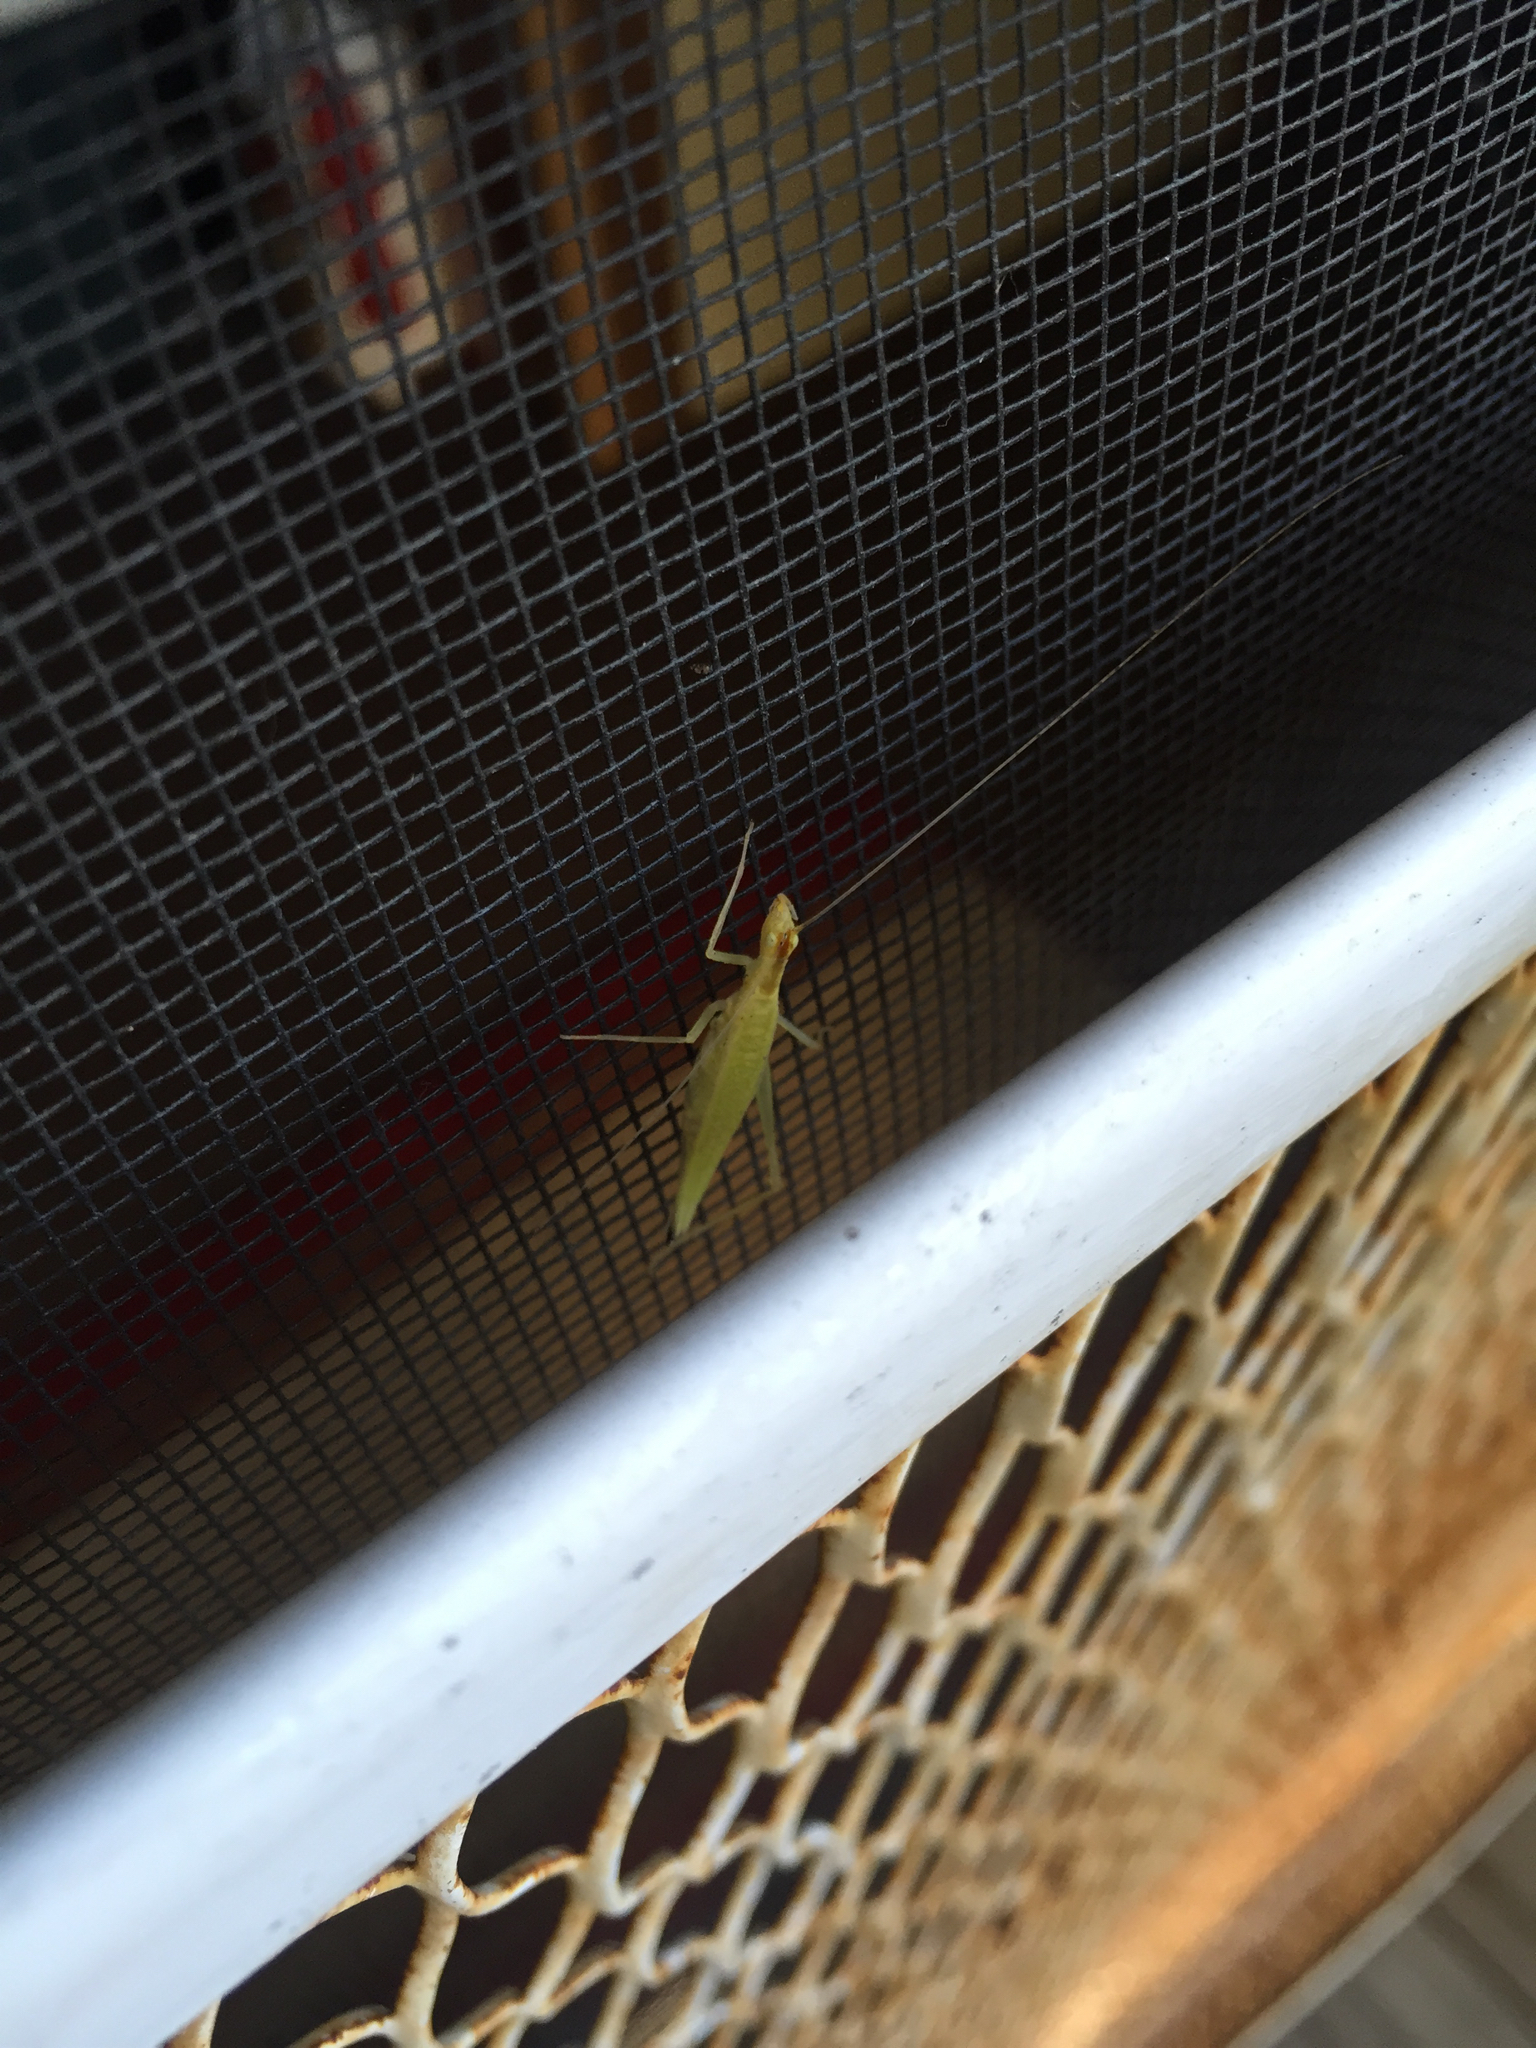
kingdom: Animalia
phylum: Arthropoda
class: Insecta
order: Orthoptera
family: Gryllidae
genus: Oecanthus
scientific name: Oecanthus fultoni
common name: Snowy tree cricket
